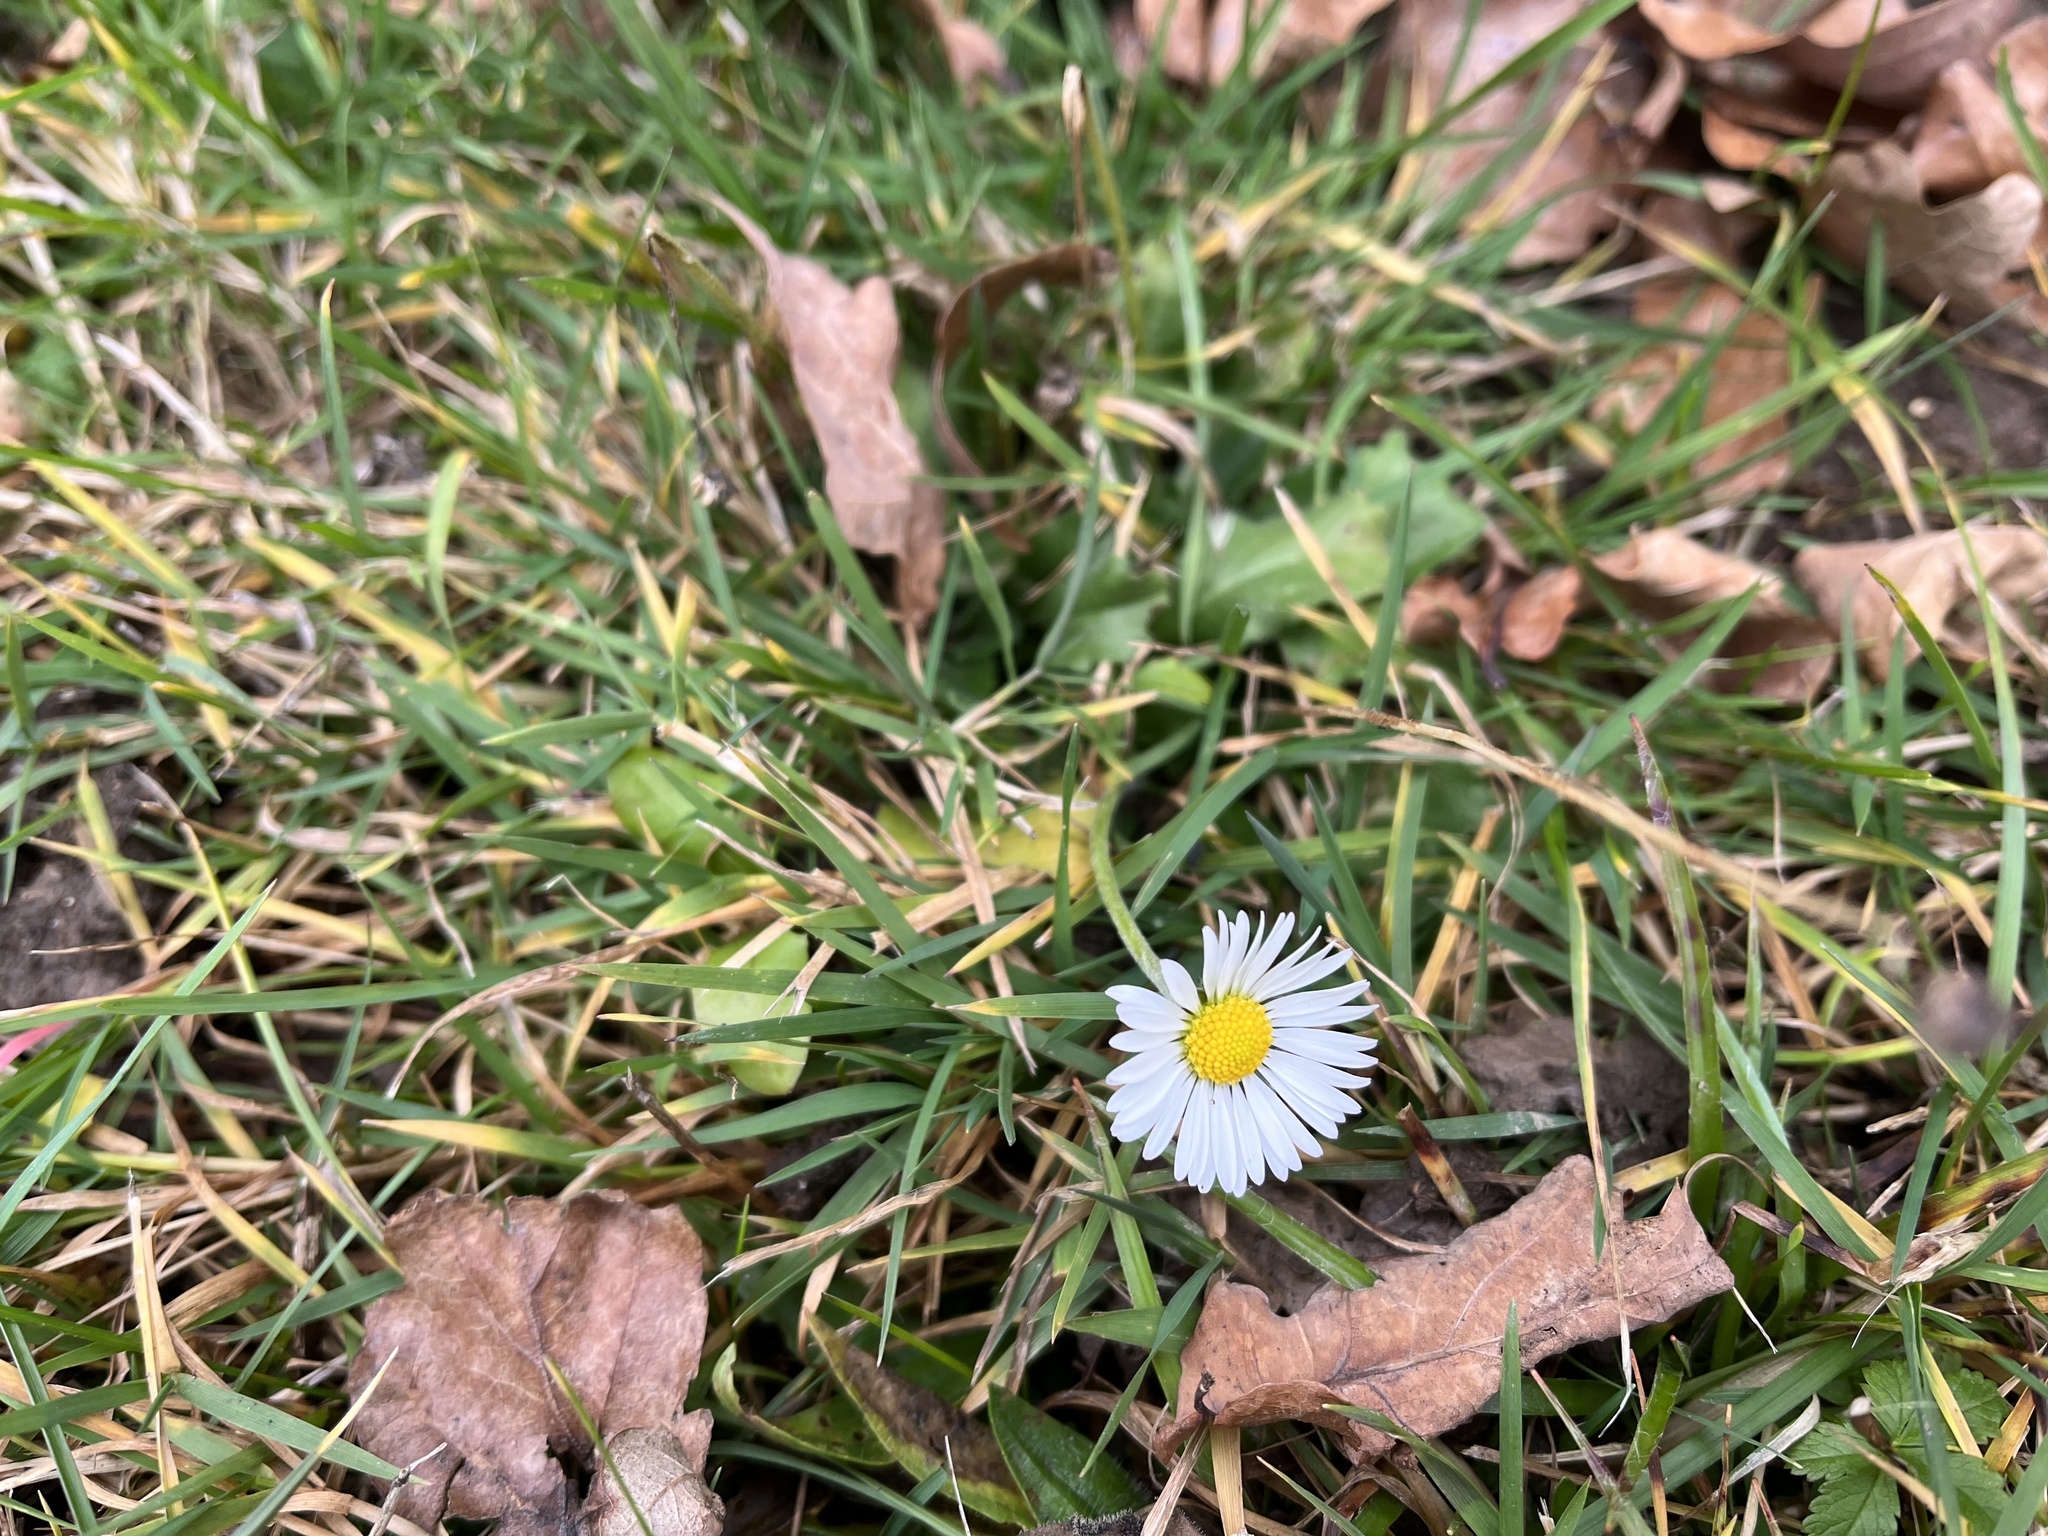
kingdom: Plantae
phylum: Tracheophyta
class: Magnoliopsida
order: Asterales
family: Asteraceae
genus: Bellis
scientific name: Bellis perennis
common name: Lawndaisy
